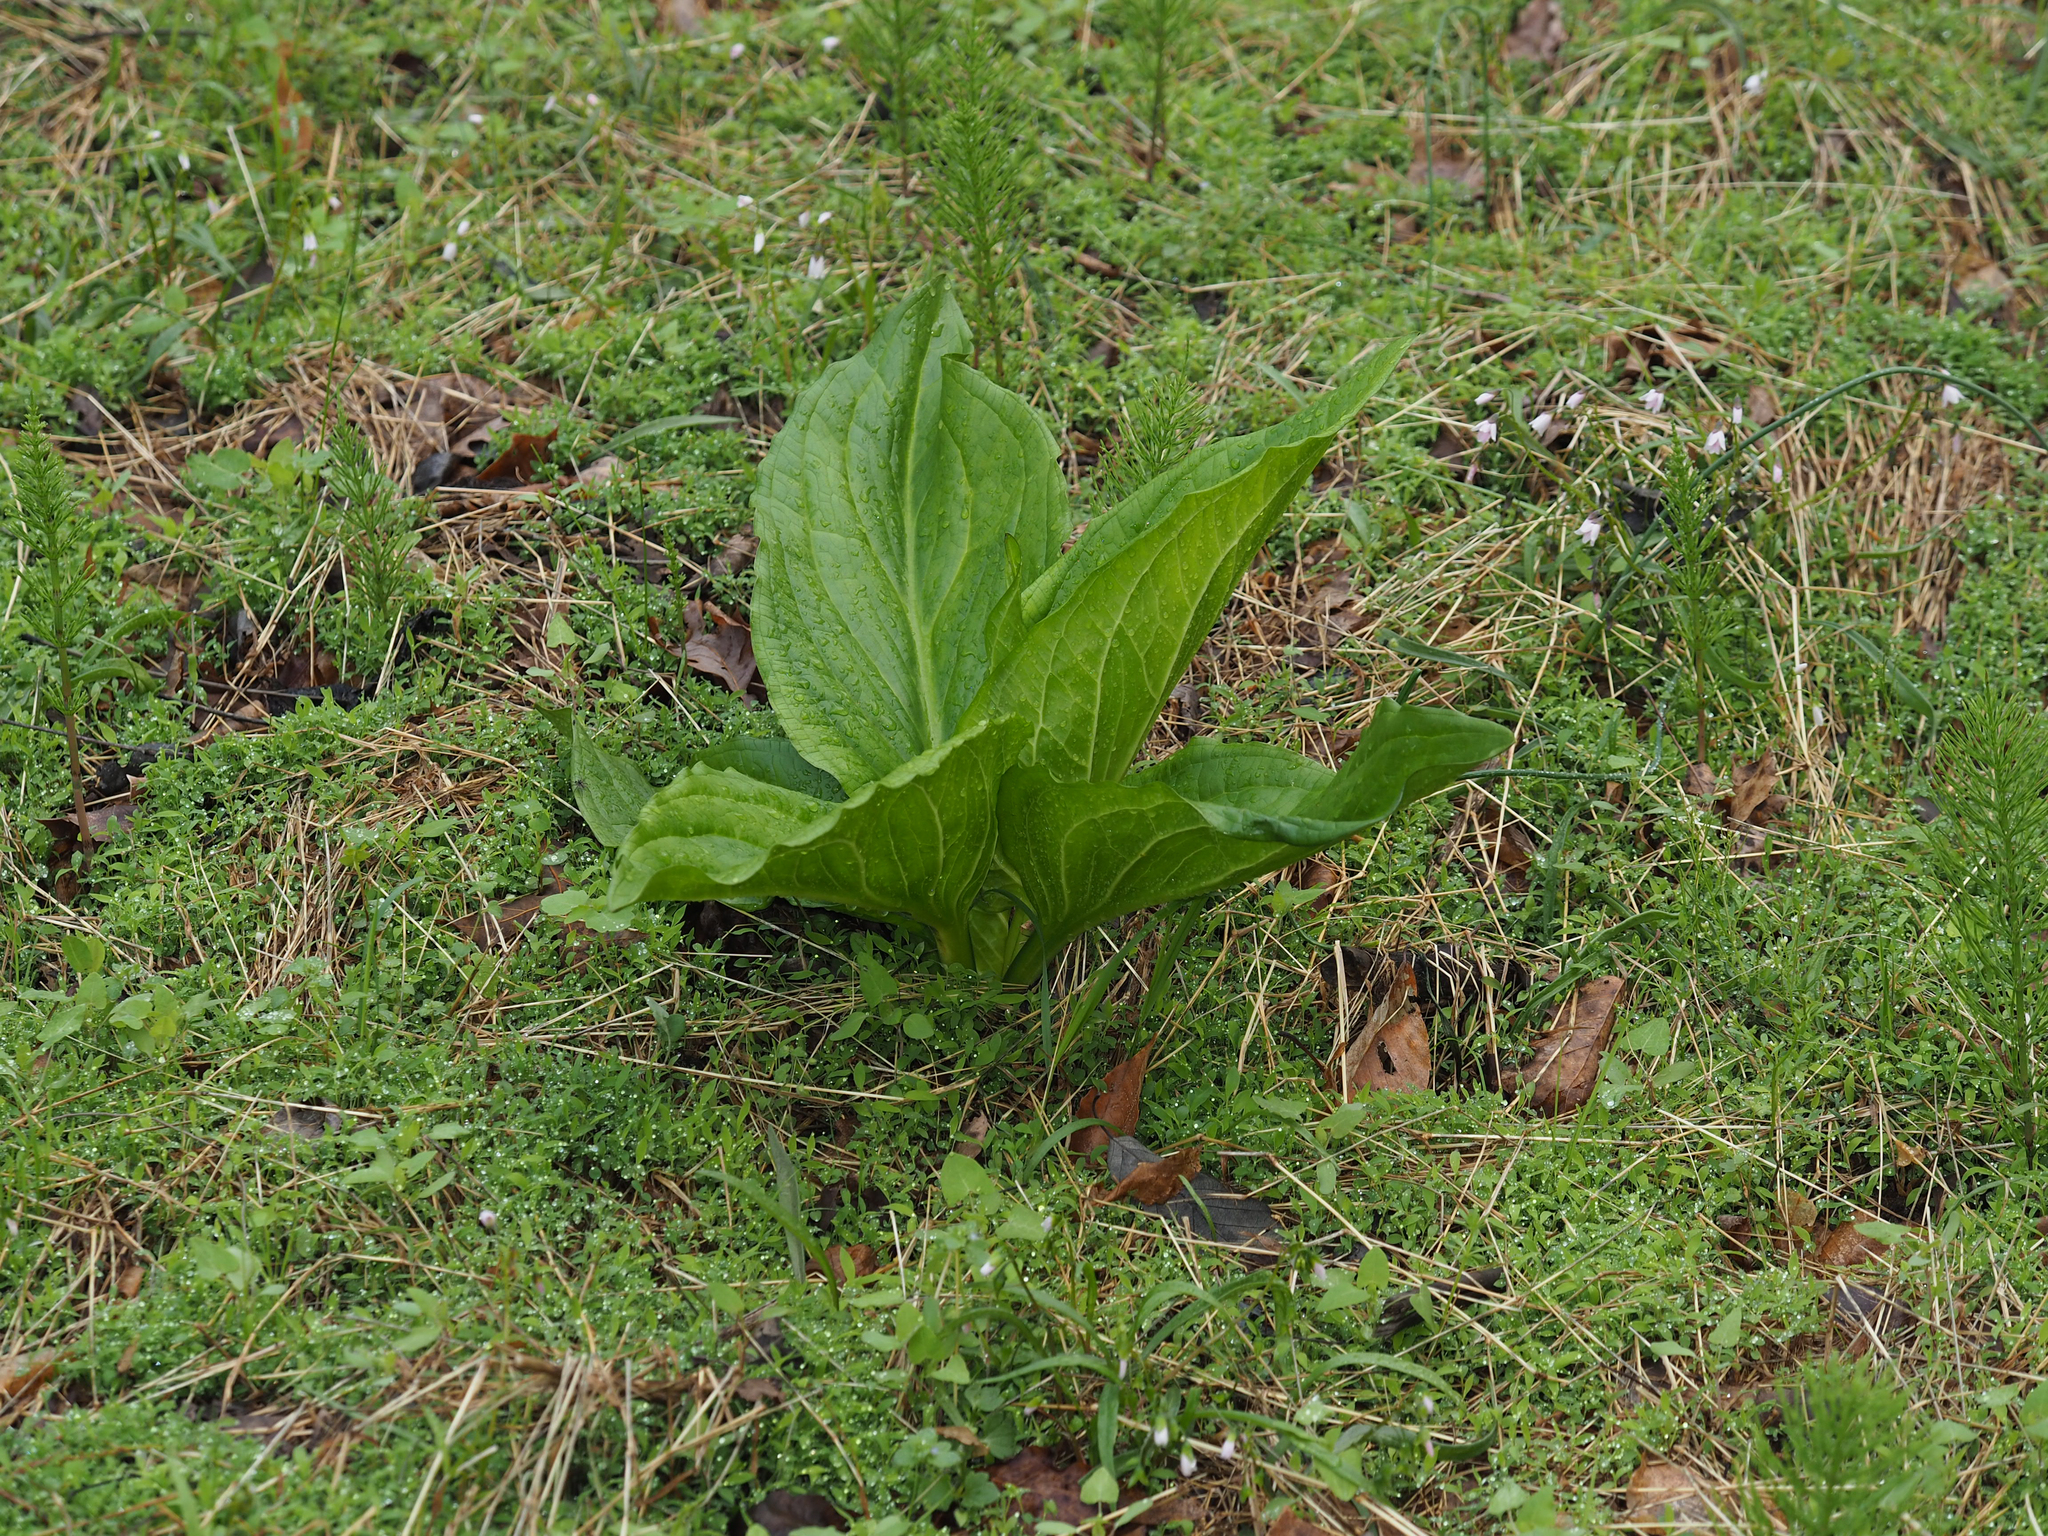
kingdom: Plantae
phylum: Tracheophyta
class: Liliopsida
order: Alismatales
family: Araceae
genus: Symplocarpus
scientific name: Symplocarpus foetidus
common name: Eastern skunk cabbage
